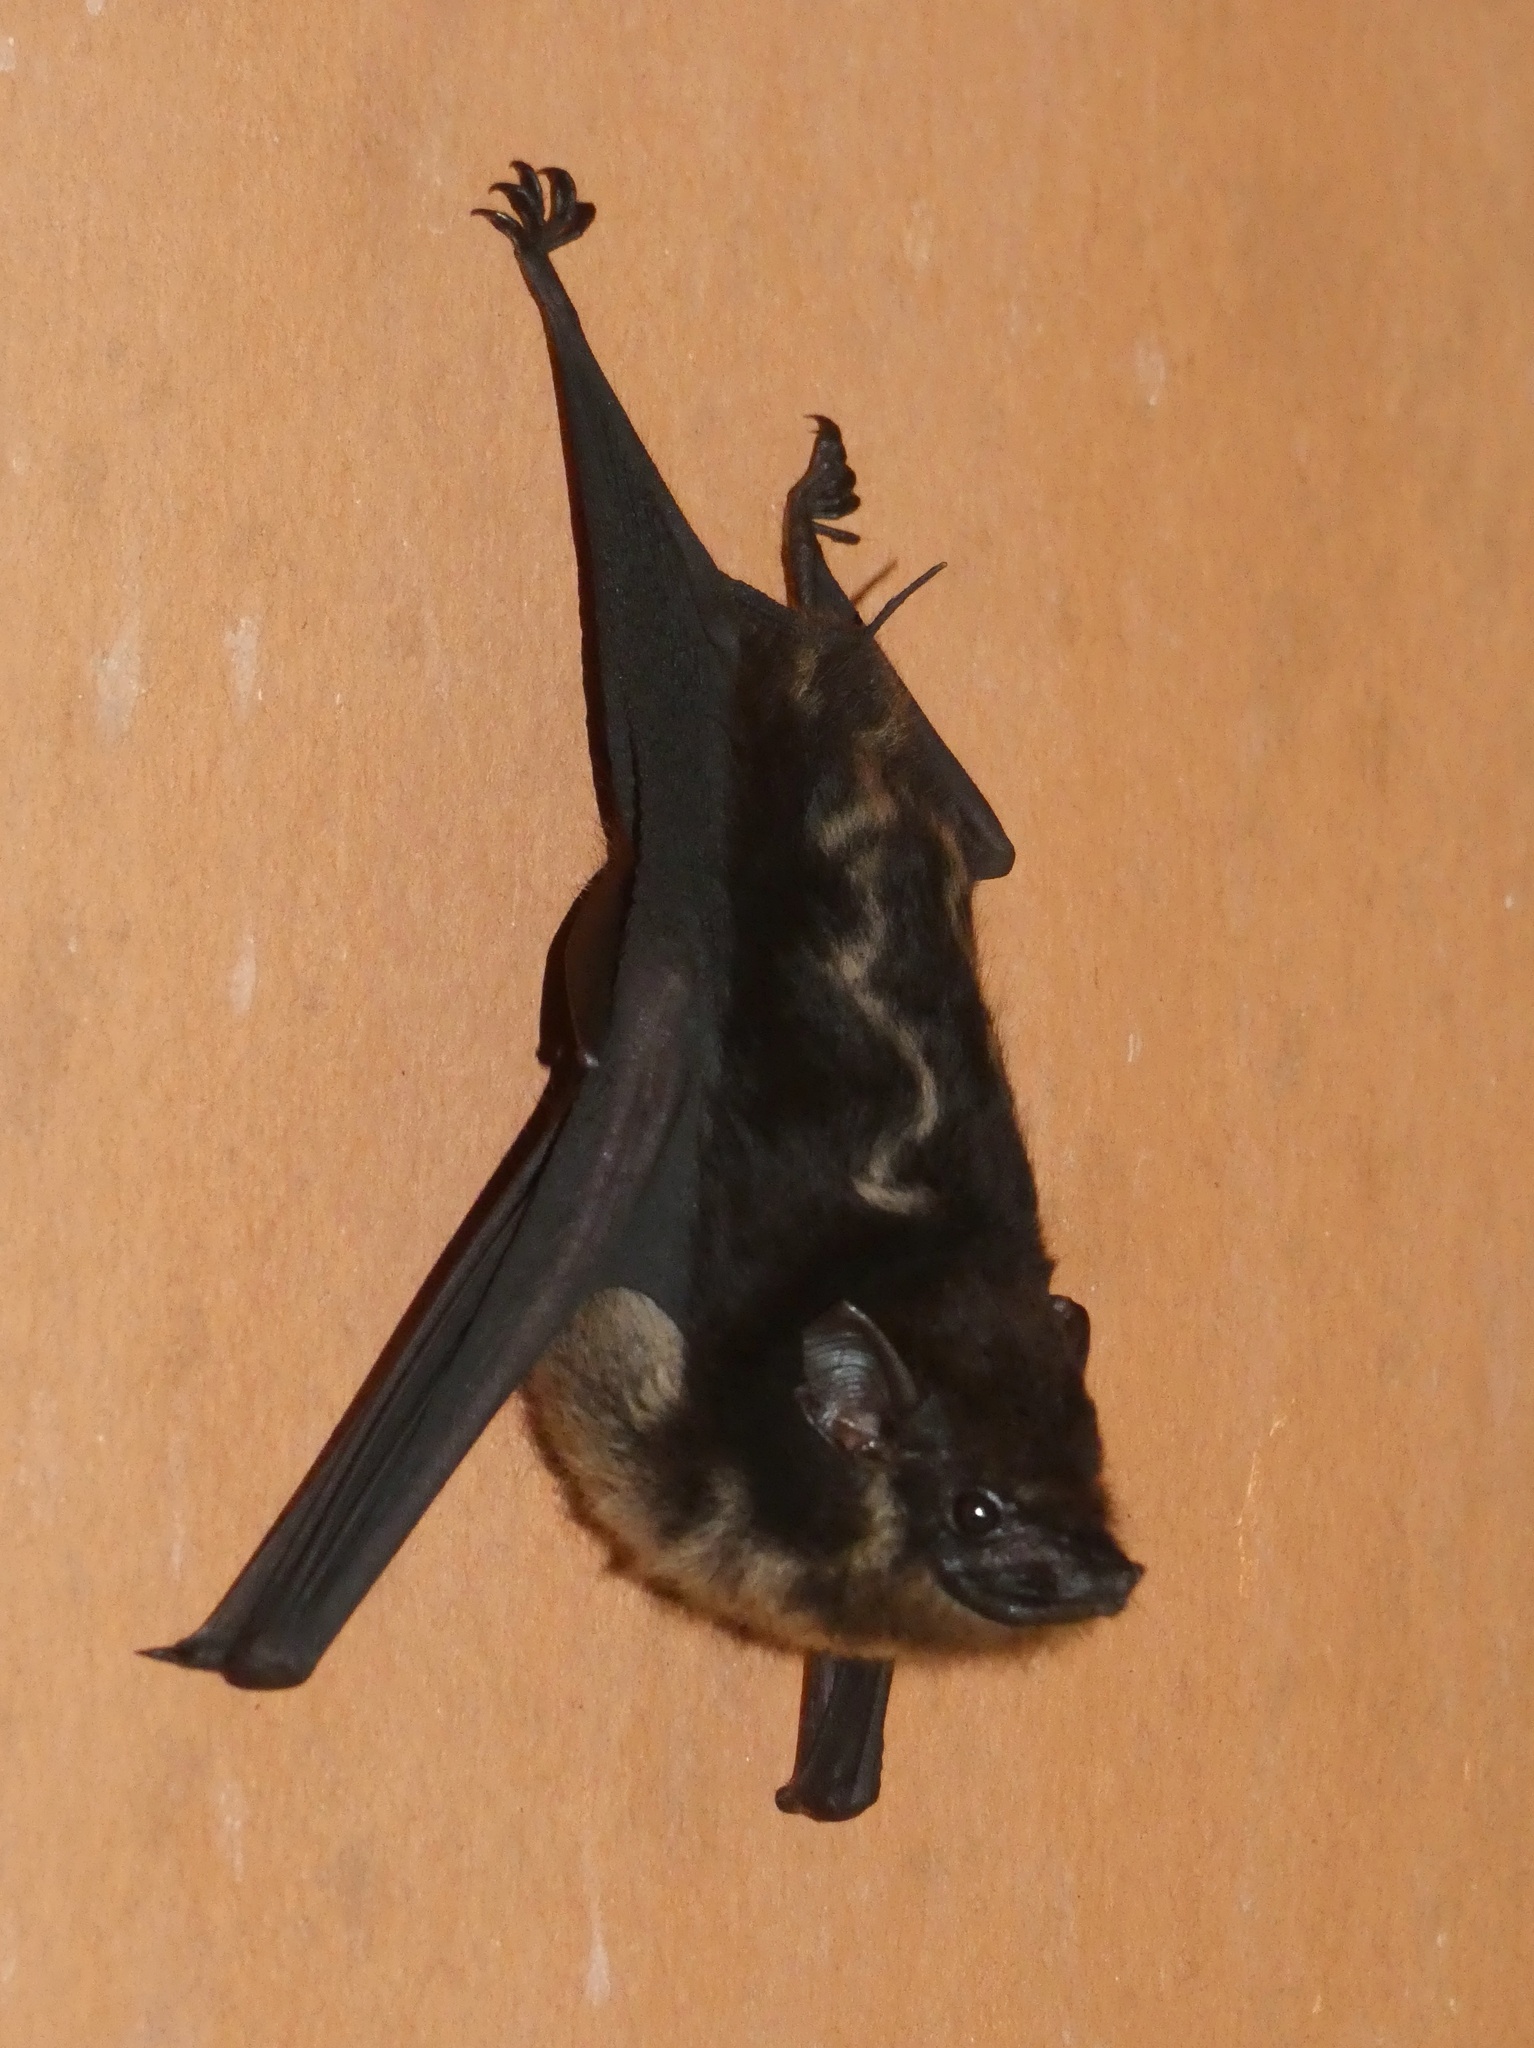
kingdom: Animalia
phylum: Chordata
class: Mammalia
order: Chiroptera
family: Emballonuridae
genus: Saccopteryx
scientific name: Saccopteryx bilineata
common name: Greater sac-winged bat
